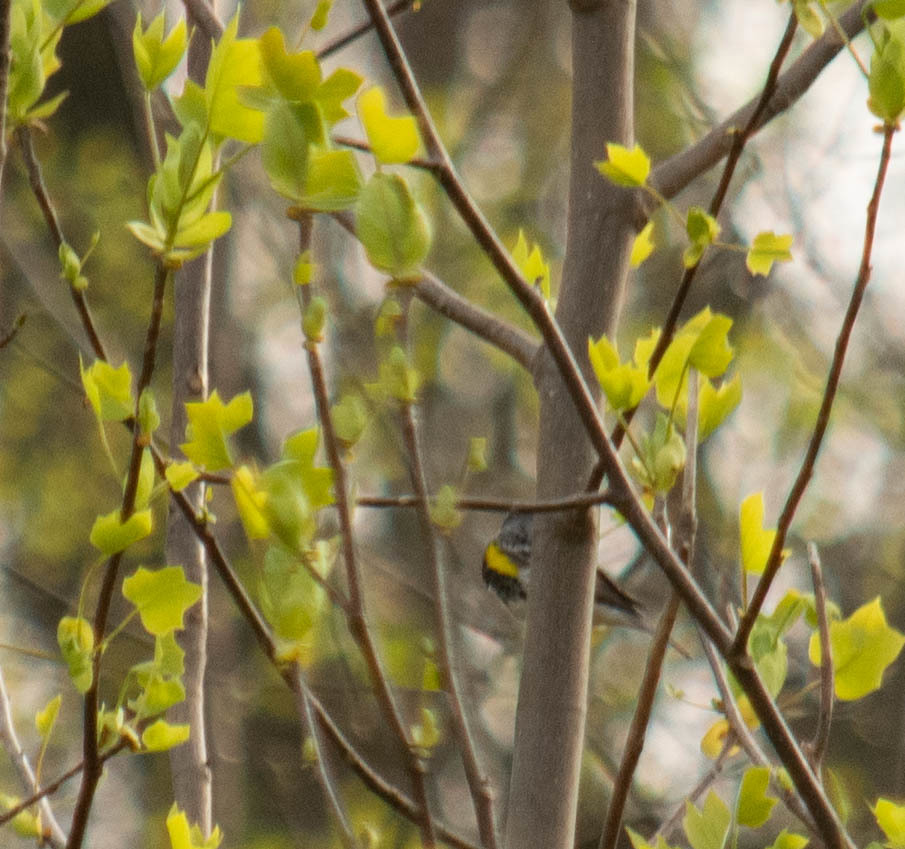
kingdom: Animalia
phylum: Chordata
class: Aves
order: Passeriformes
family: Parulidae
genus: Setophaga
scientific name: Setophaga coronata
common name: Myrtle warbler
